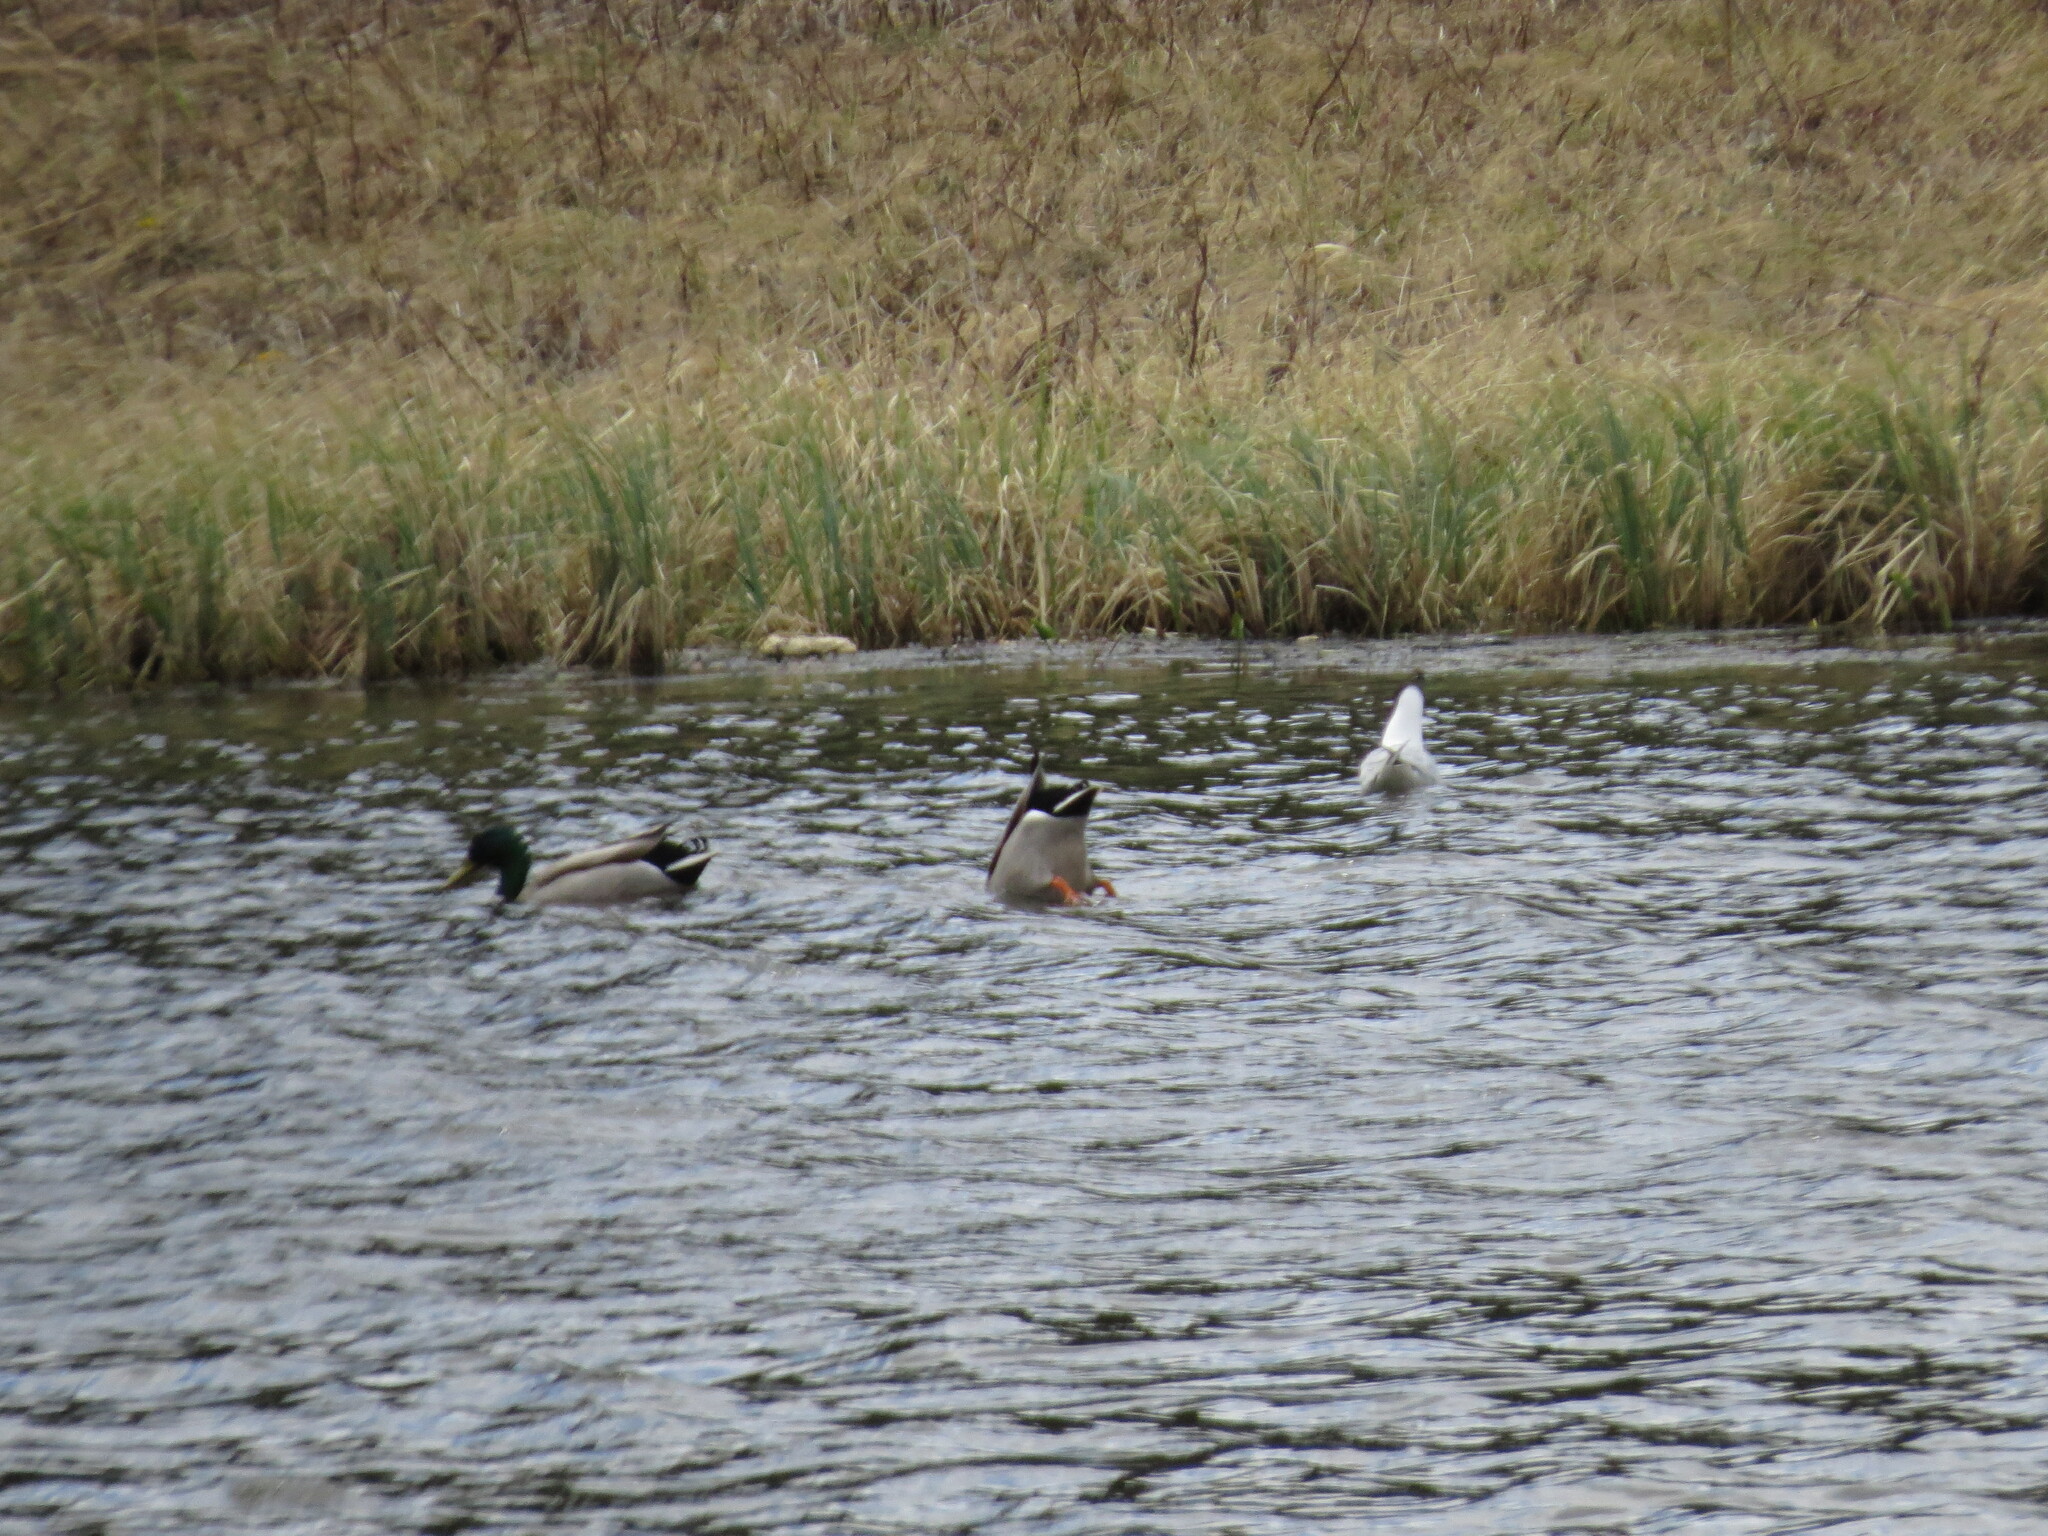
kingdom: Animalia
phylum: Chordata
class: Aves
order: Anseriformes
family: Anatidae
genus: Anas
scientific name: Anas platyrhynchos
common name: Mallard
